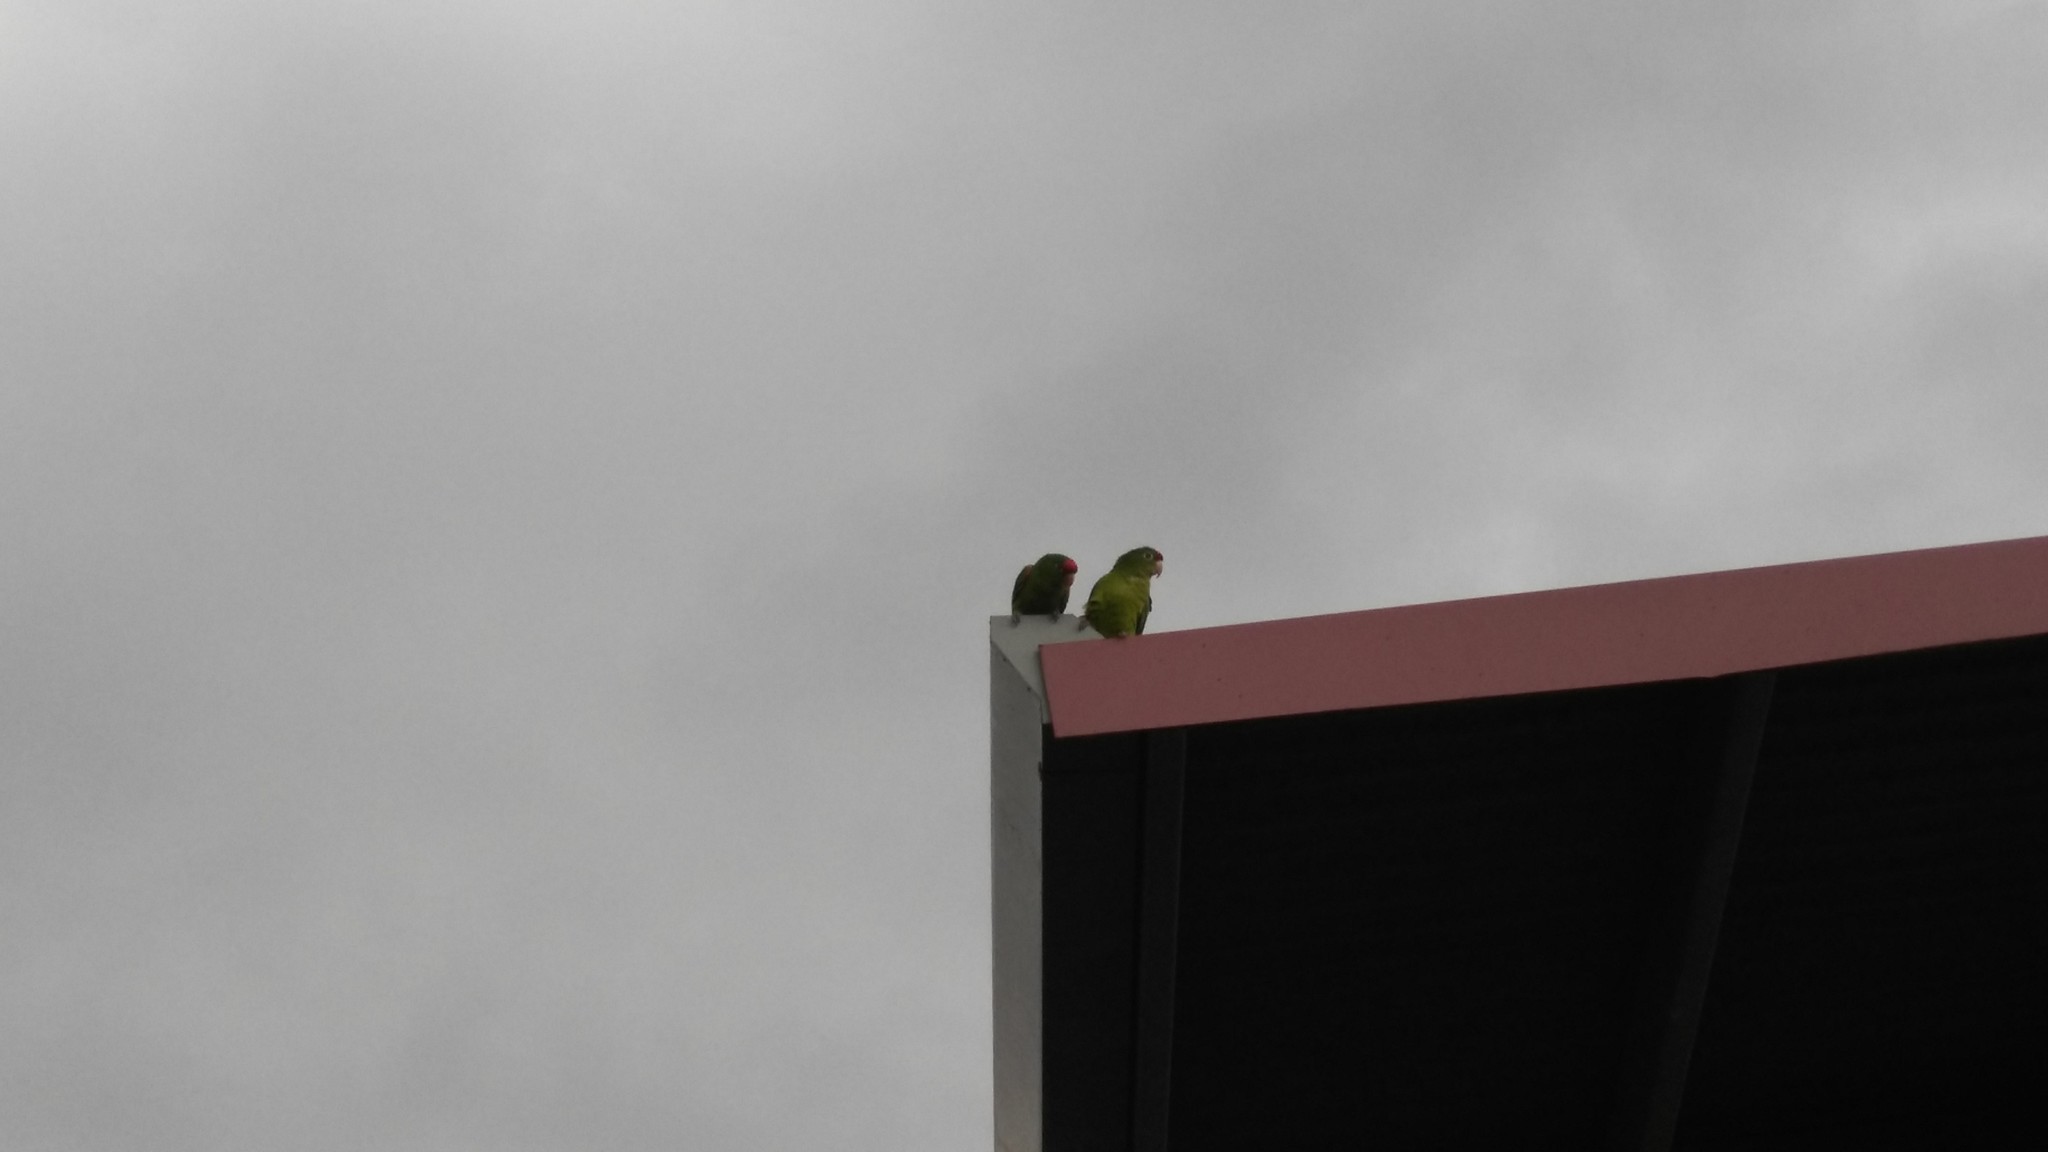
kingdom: Animalia
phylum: Chordata
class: Aves
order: Psittaciformes
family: Psittacidae
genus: Aratinga
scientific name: Aratinga finschi
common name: Crimson-fronted parakeet
